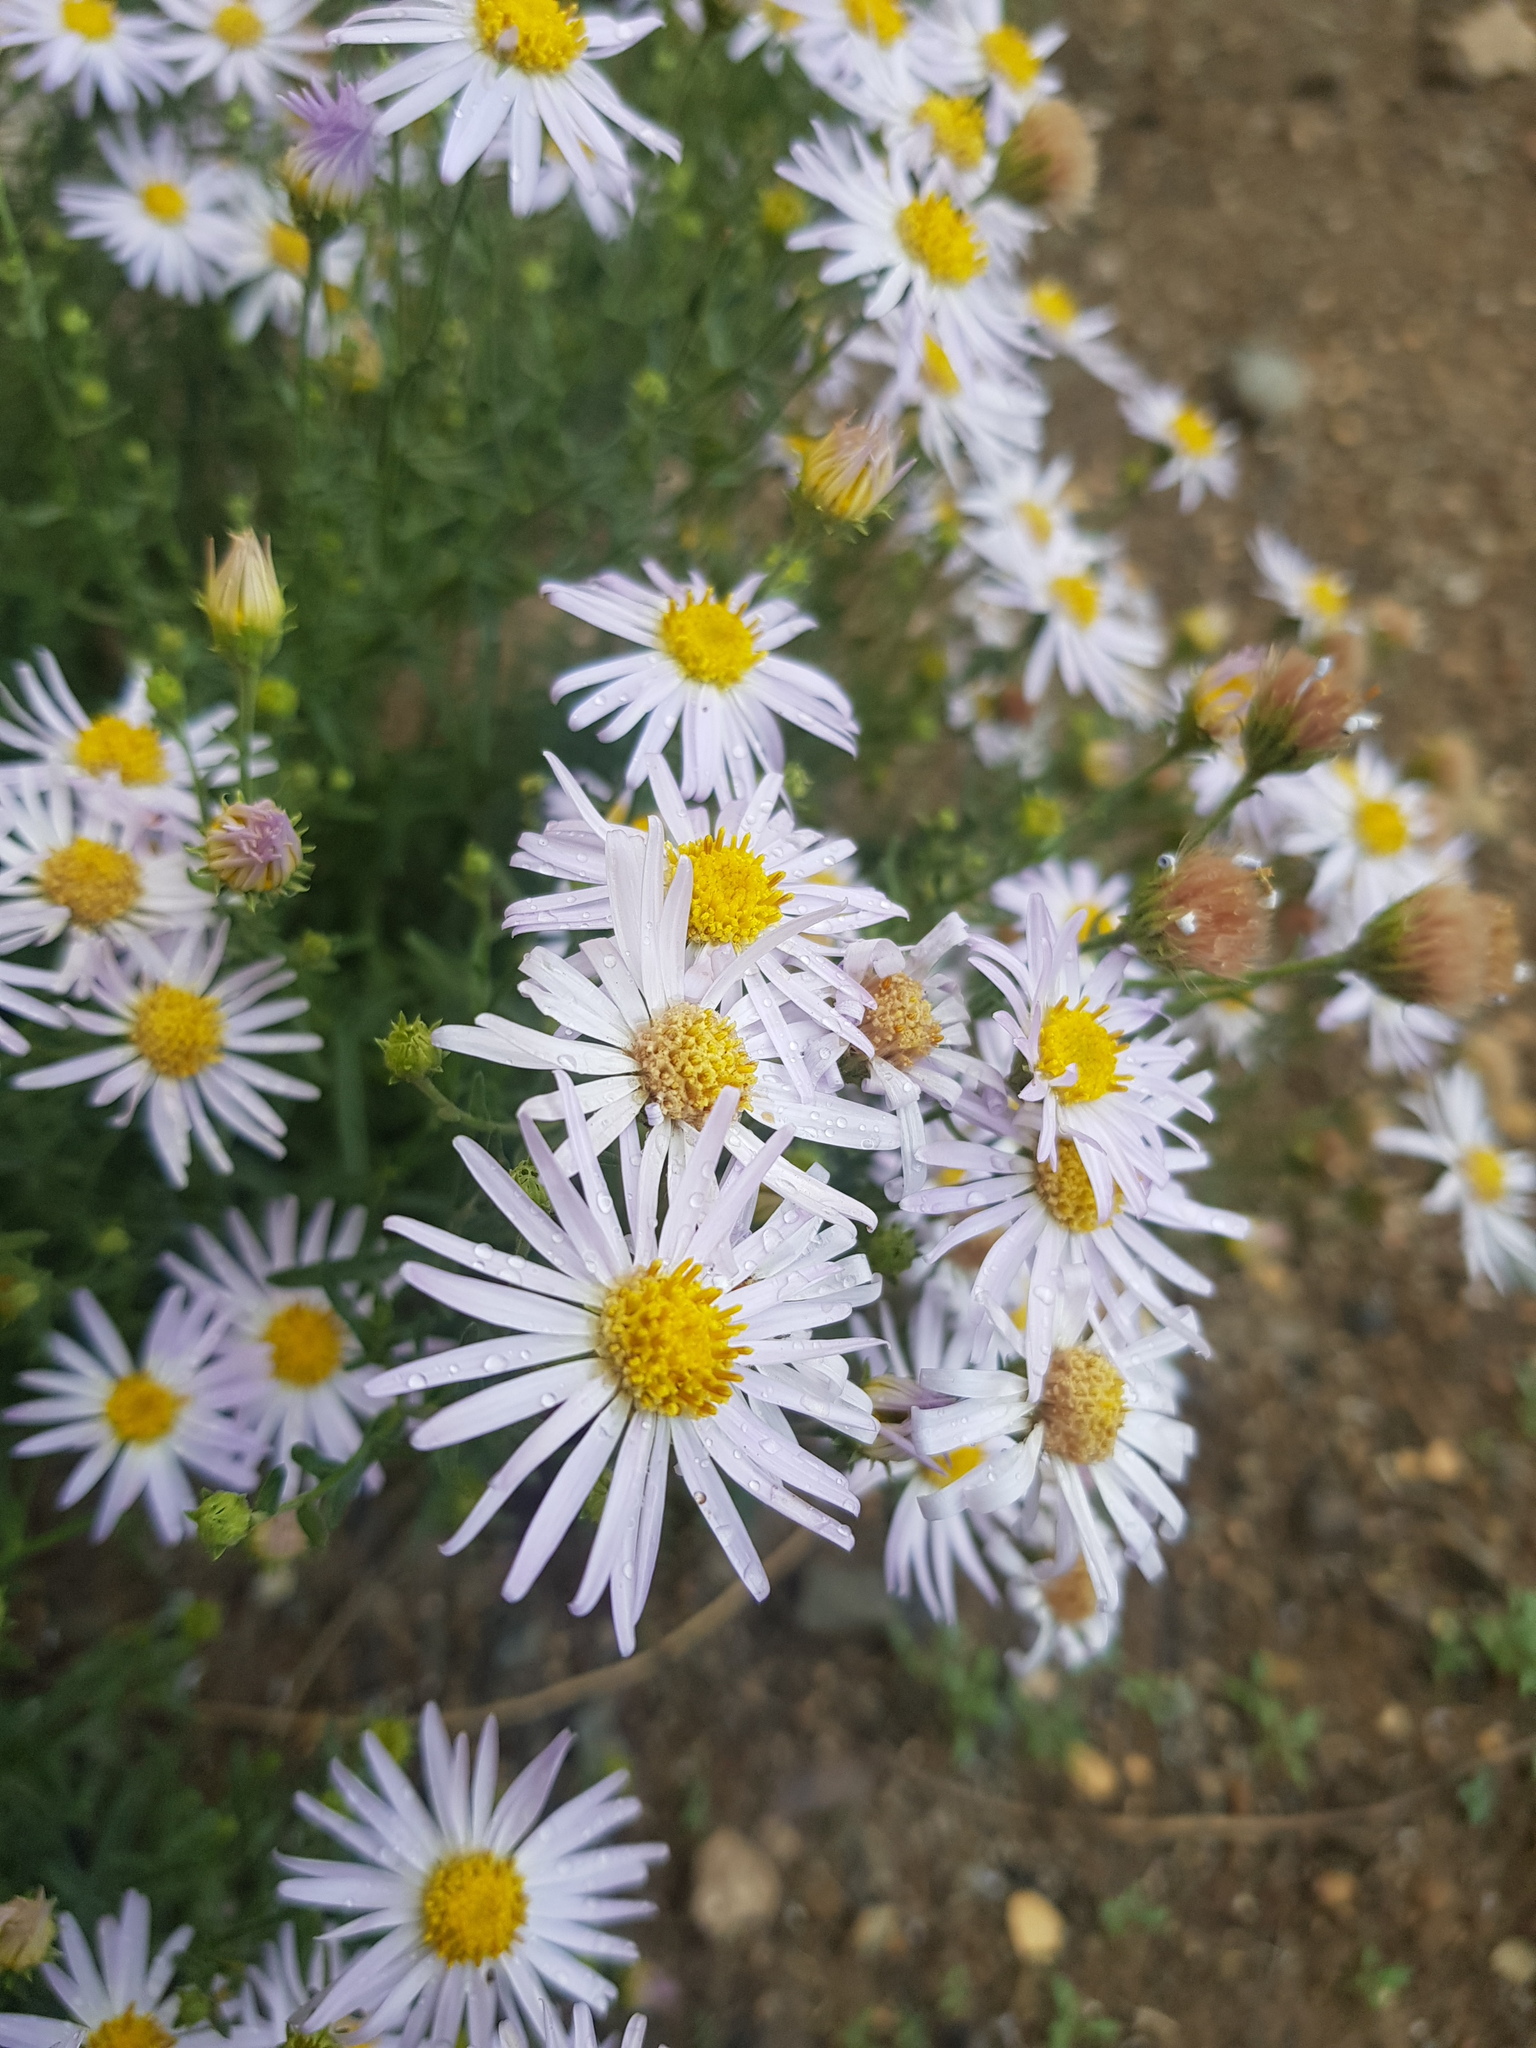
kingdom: Plantae
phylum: Tracheophyta
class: Magnoliopsida
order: Asterales
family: Asteraceae
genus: Heteropappus
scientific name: Heteropappus altaicus
